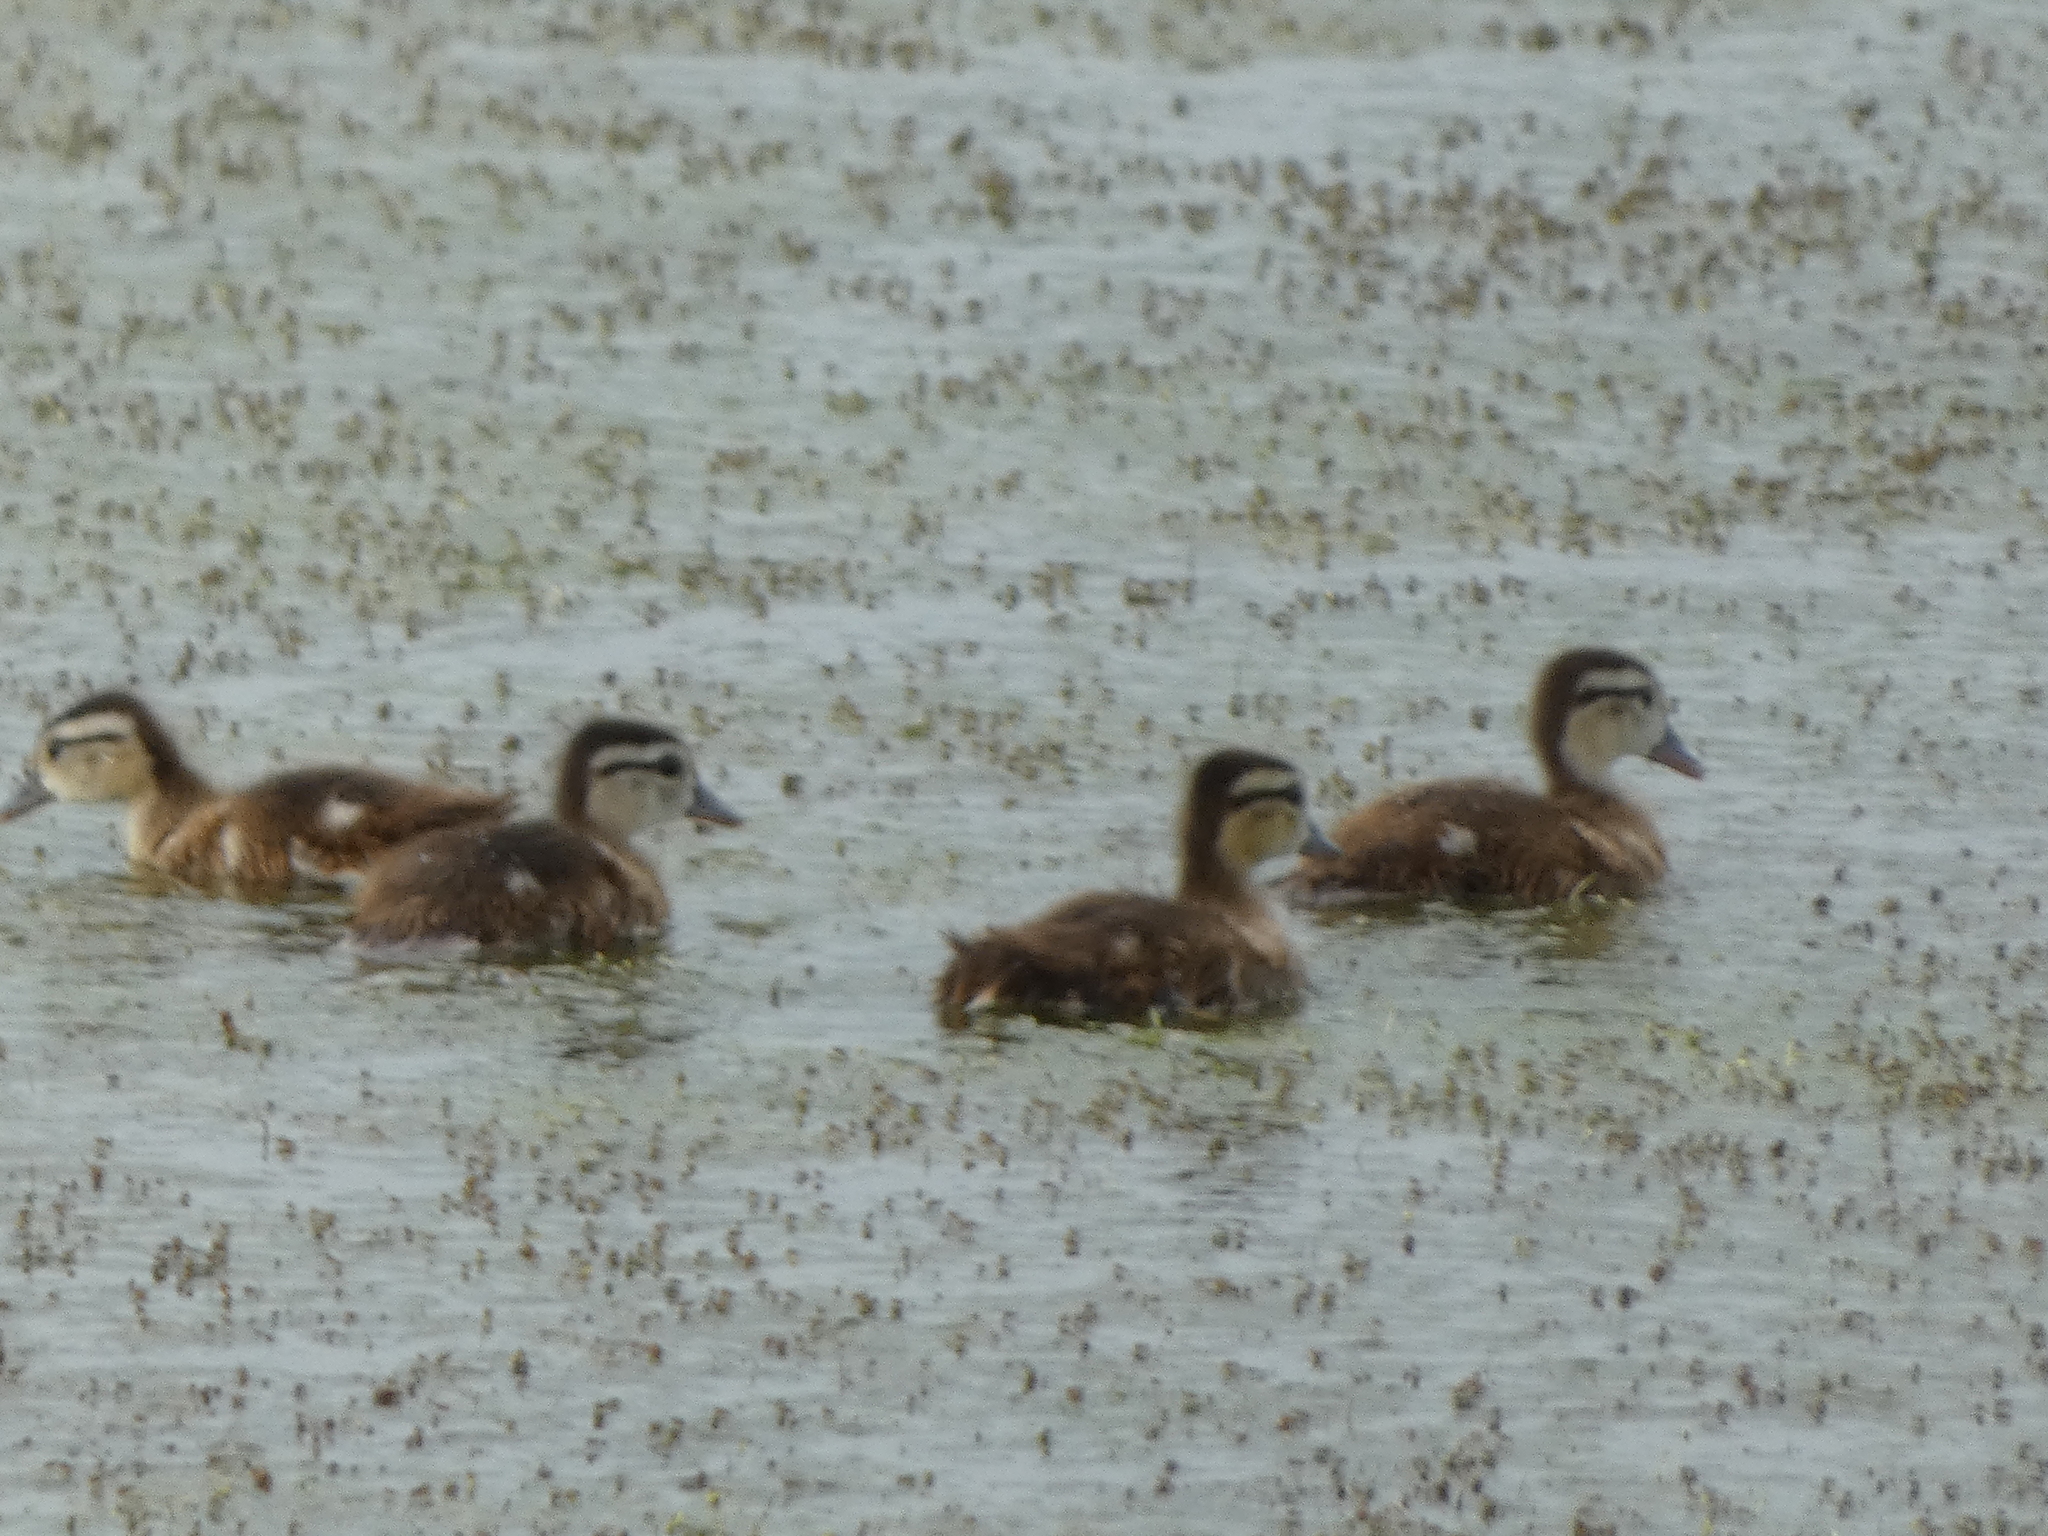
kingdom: Animalia
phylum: Chordata
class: Aves
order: Anseriformes
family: Anatidae
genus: Aix
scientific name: Aix sponsa
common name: Wood duck
